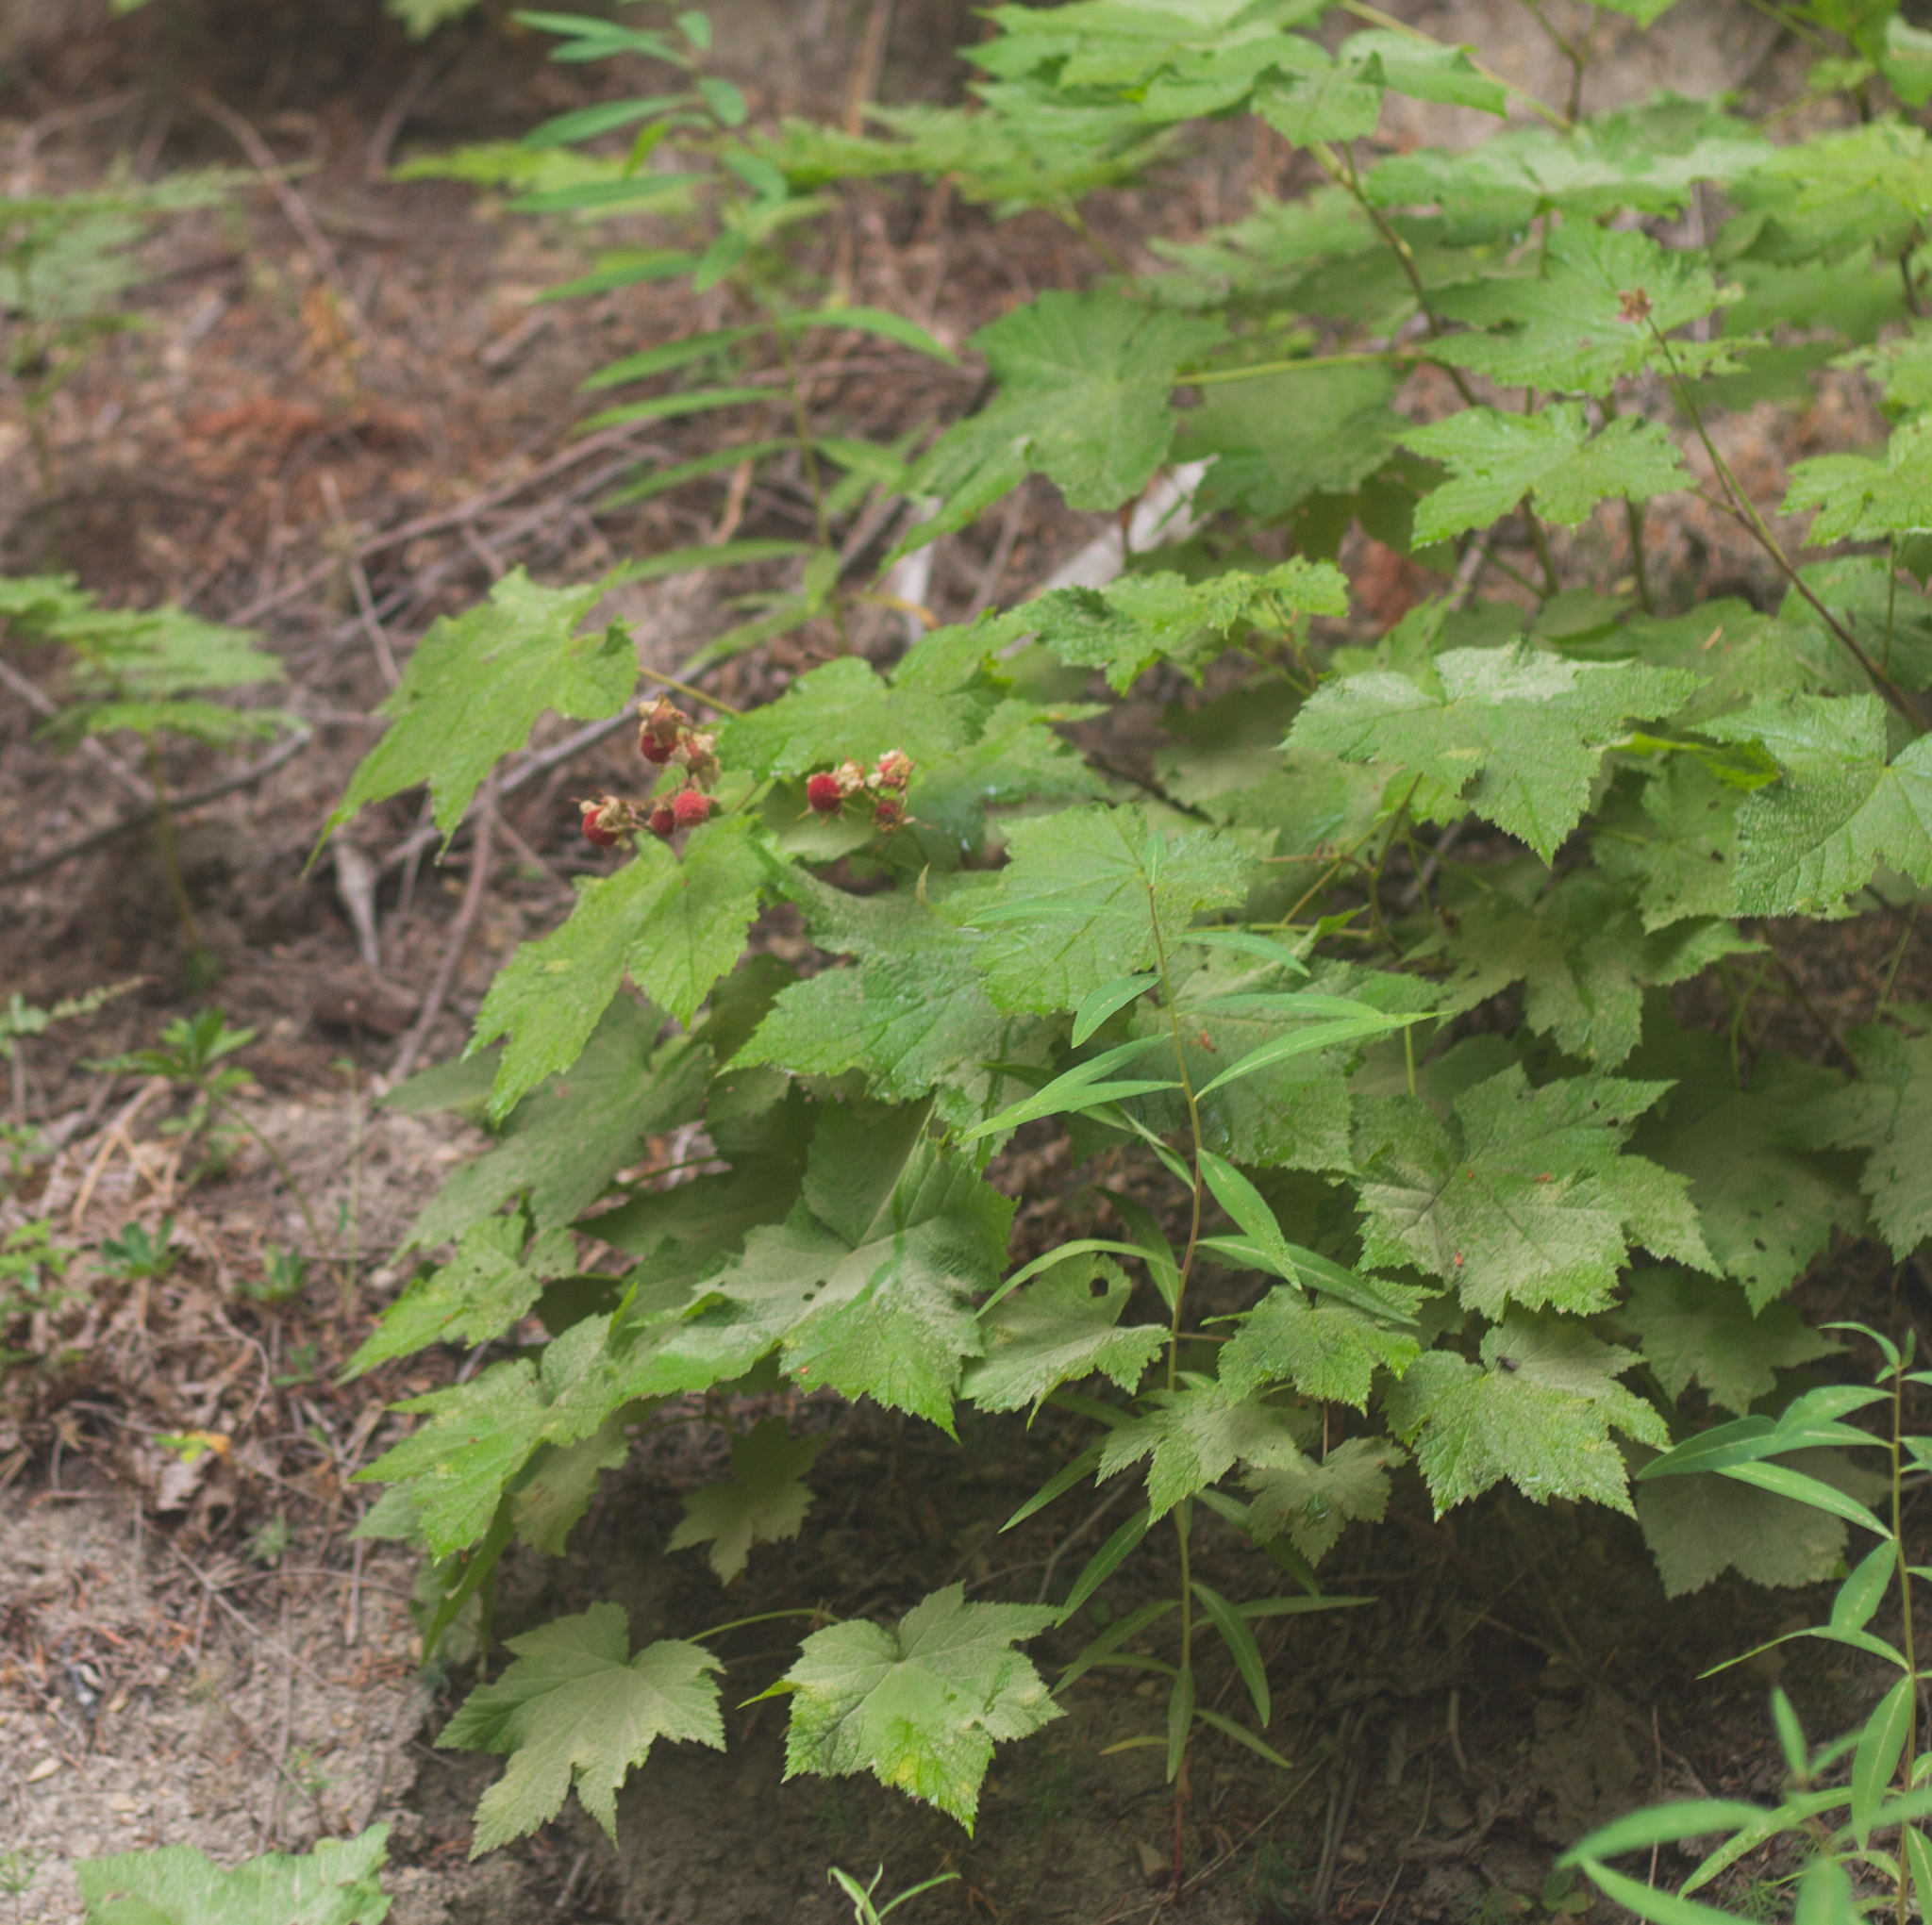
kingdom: Plantae
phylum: Tracheophyta
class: Magnoliopsida
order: Rosales
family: Rosaceae
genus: Rubus
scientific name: Rubus parviflorus
